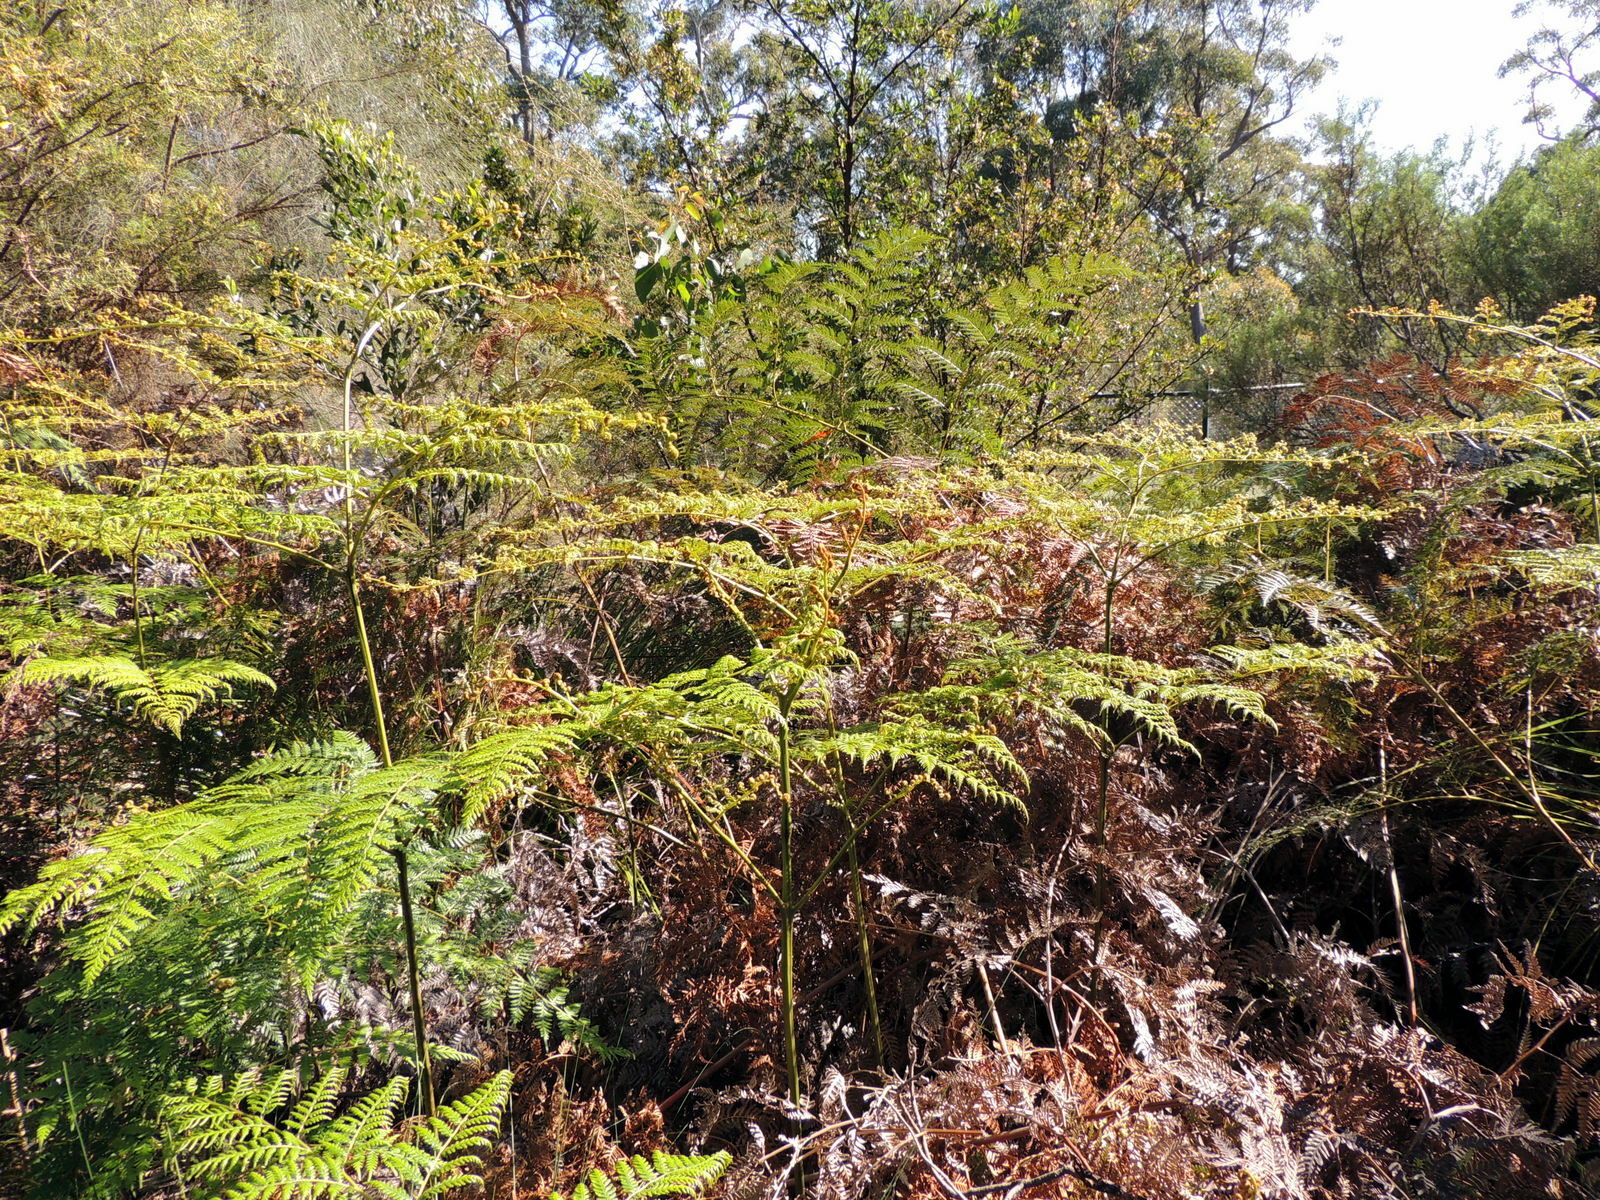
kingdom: Plantae
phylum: Tracheophyta
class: Polypodiopsida
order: Polypodiales
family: Dennstaedtiaceae
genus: Pteridium
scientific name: Pteridium esculentum
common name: Bracken fern
